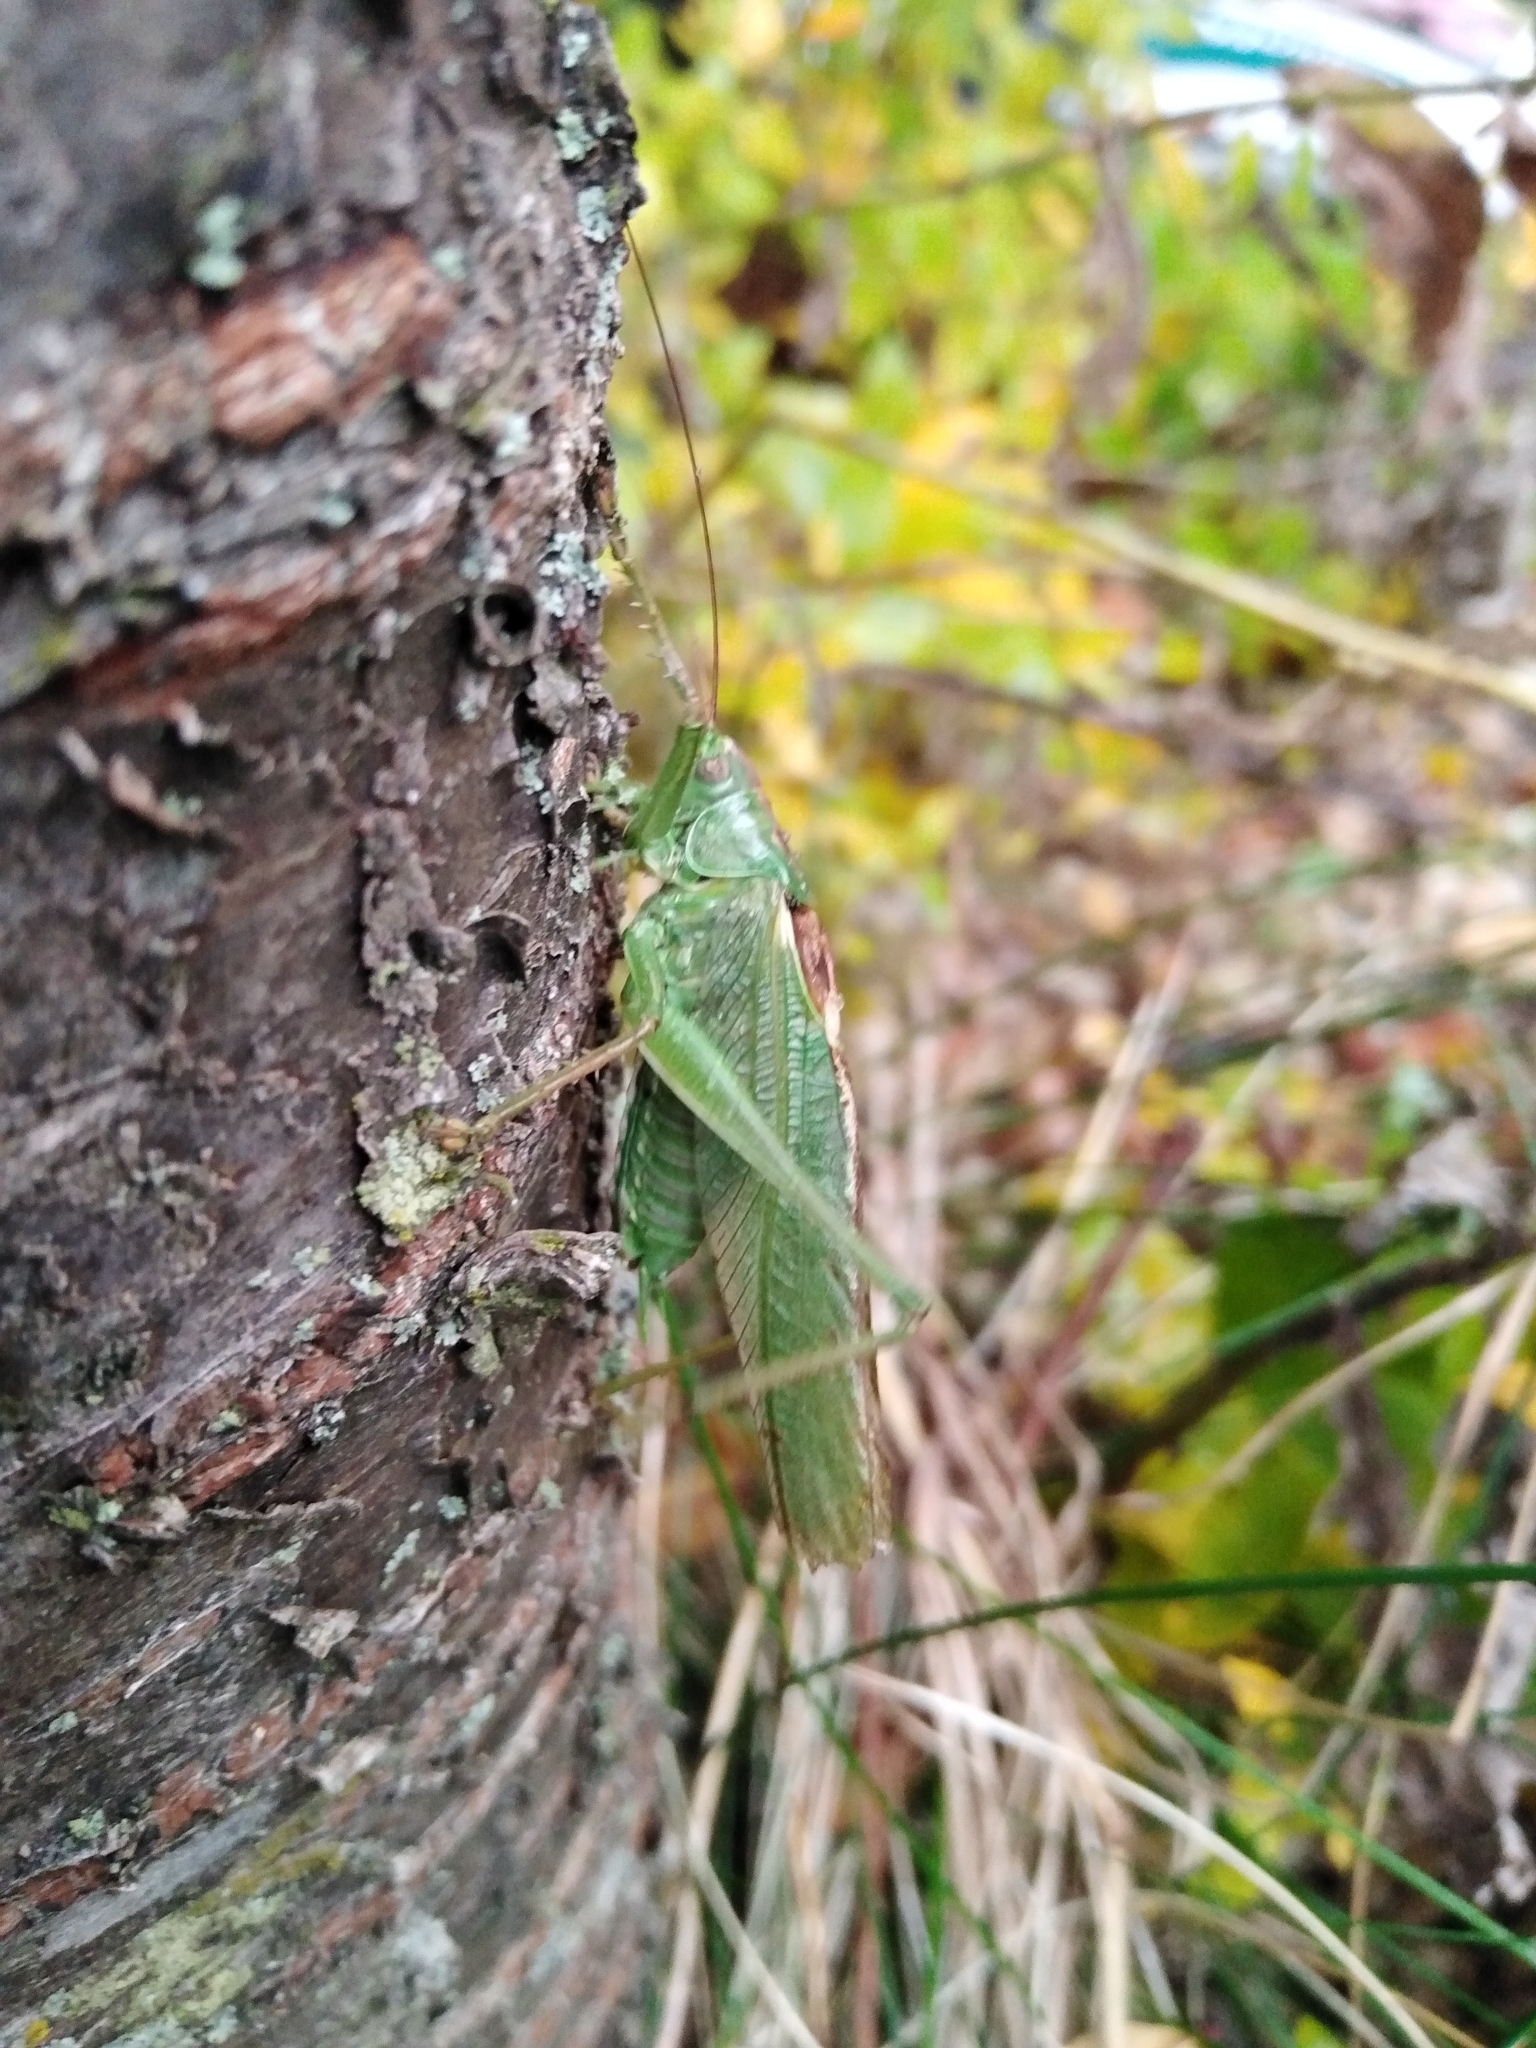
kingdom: Animalia
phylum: Arthropoda
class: Insecta
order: Orthoptera
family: Tettigoniidae
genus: Tettigonia
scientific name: Tettigonia viridissima
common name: Great green bush-cricket
